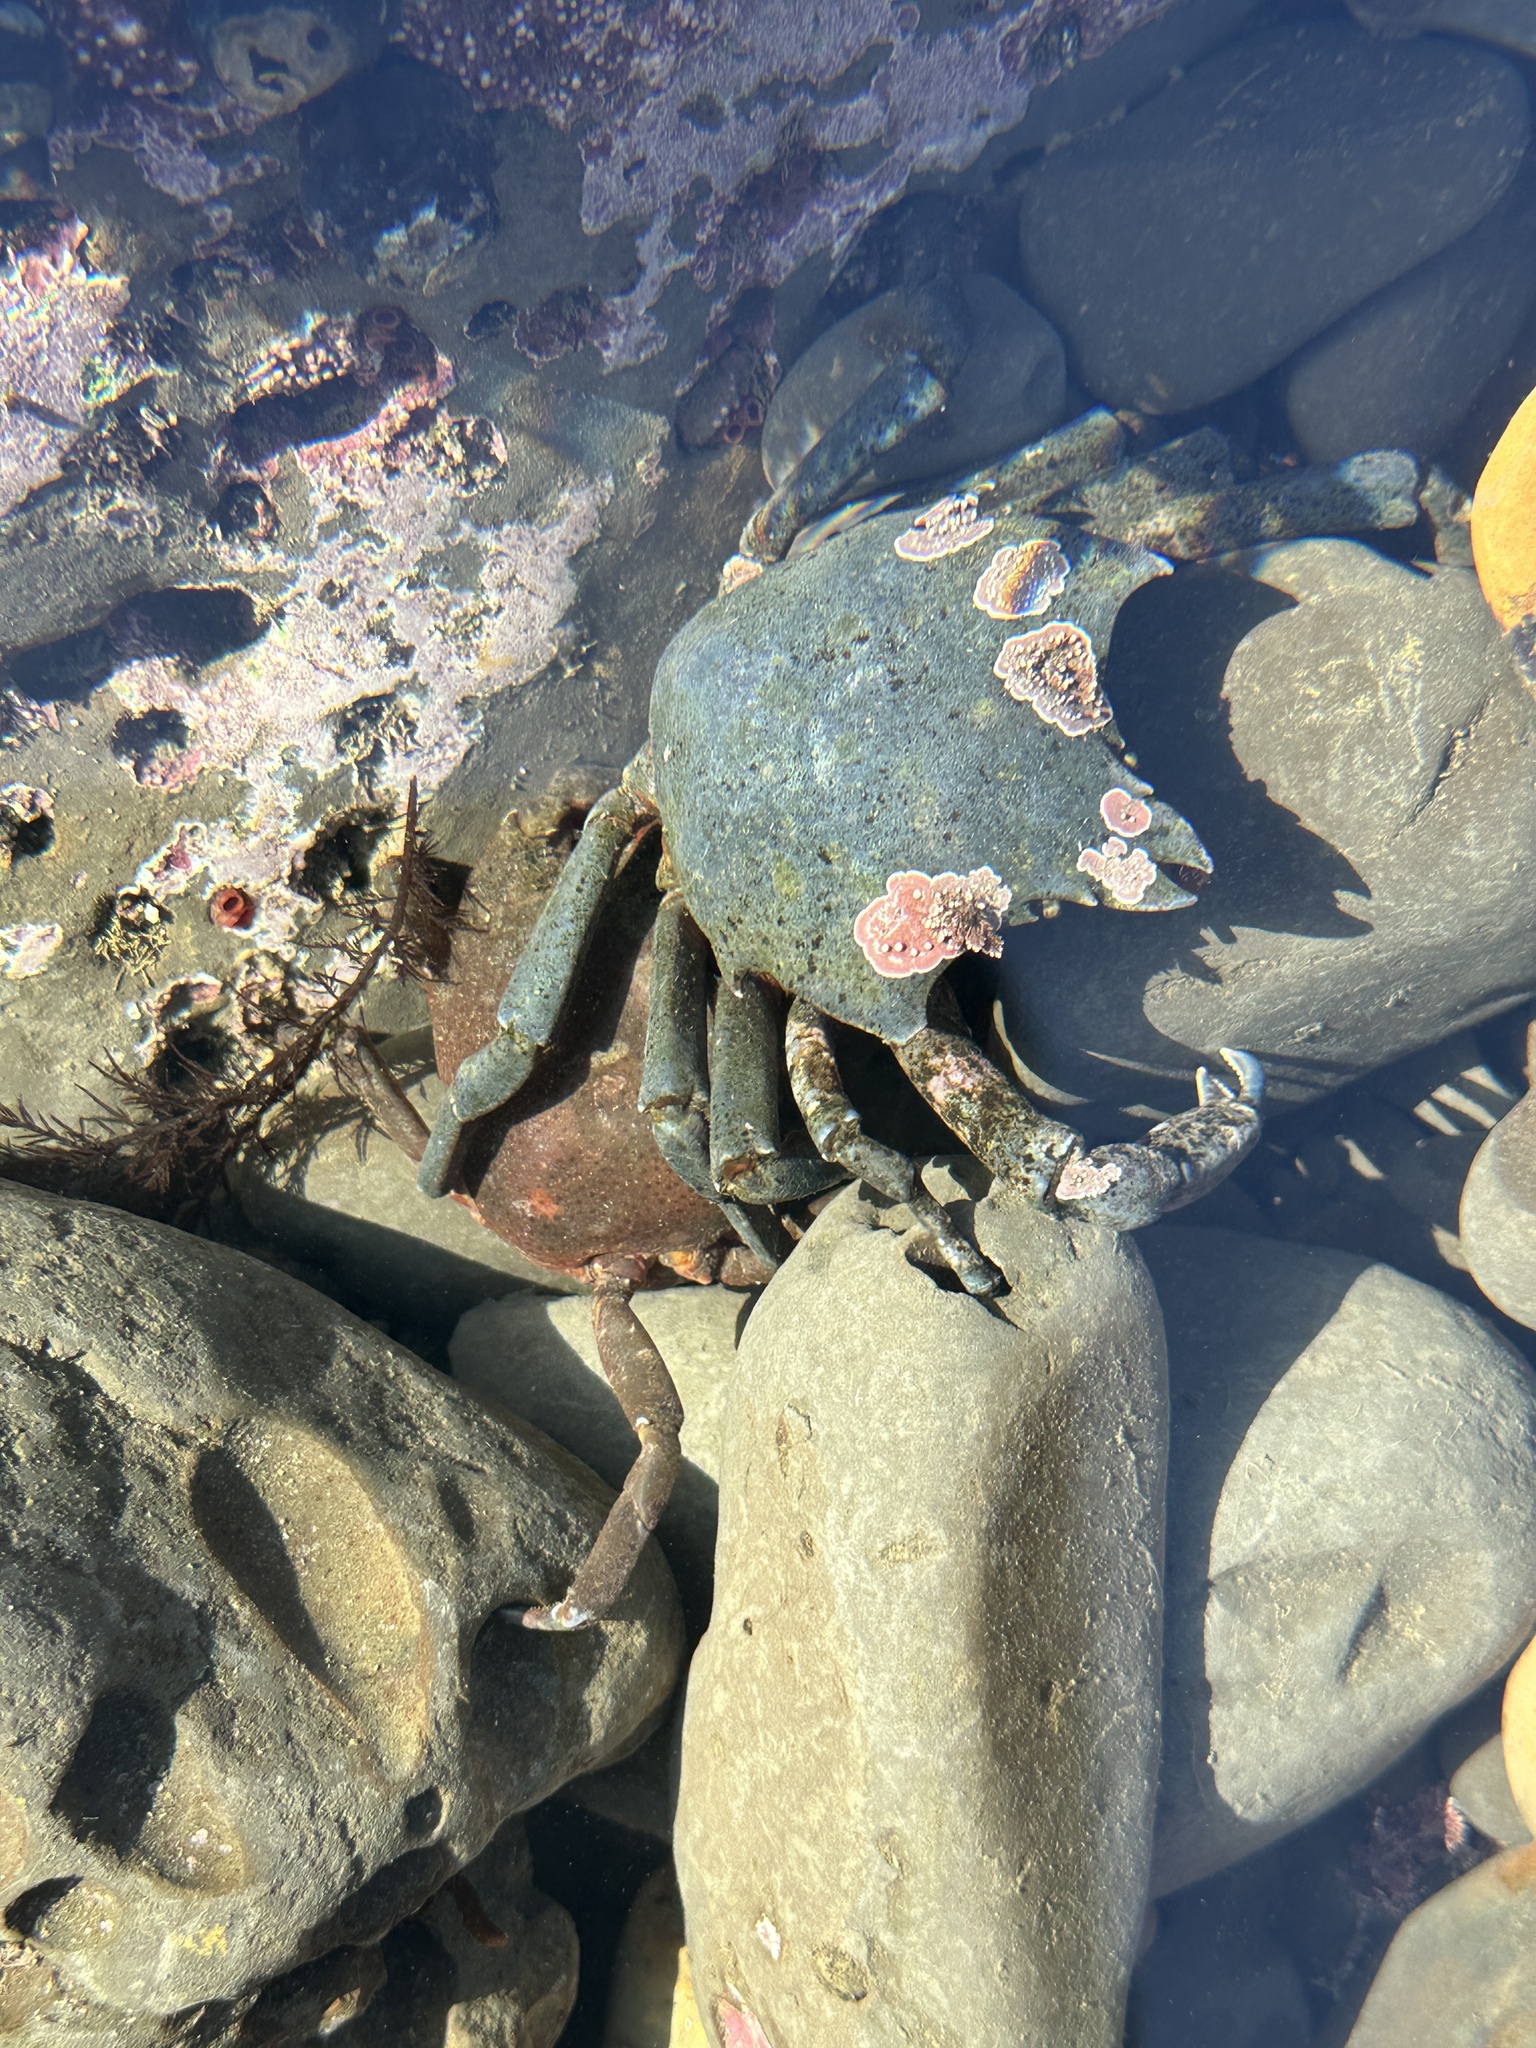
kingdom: Animalia
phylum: Arthropoda
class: Malacostraca
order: Decapoda
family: Epialtidae
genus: Pugettia
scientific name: Pugettia producta
